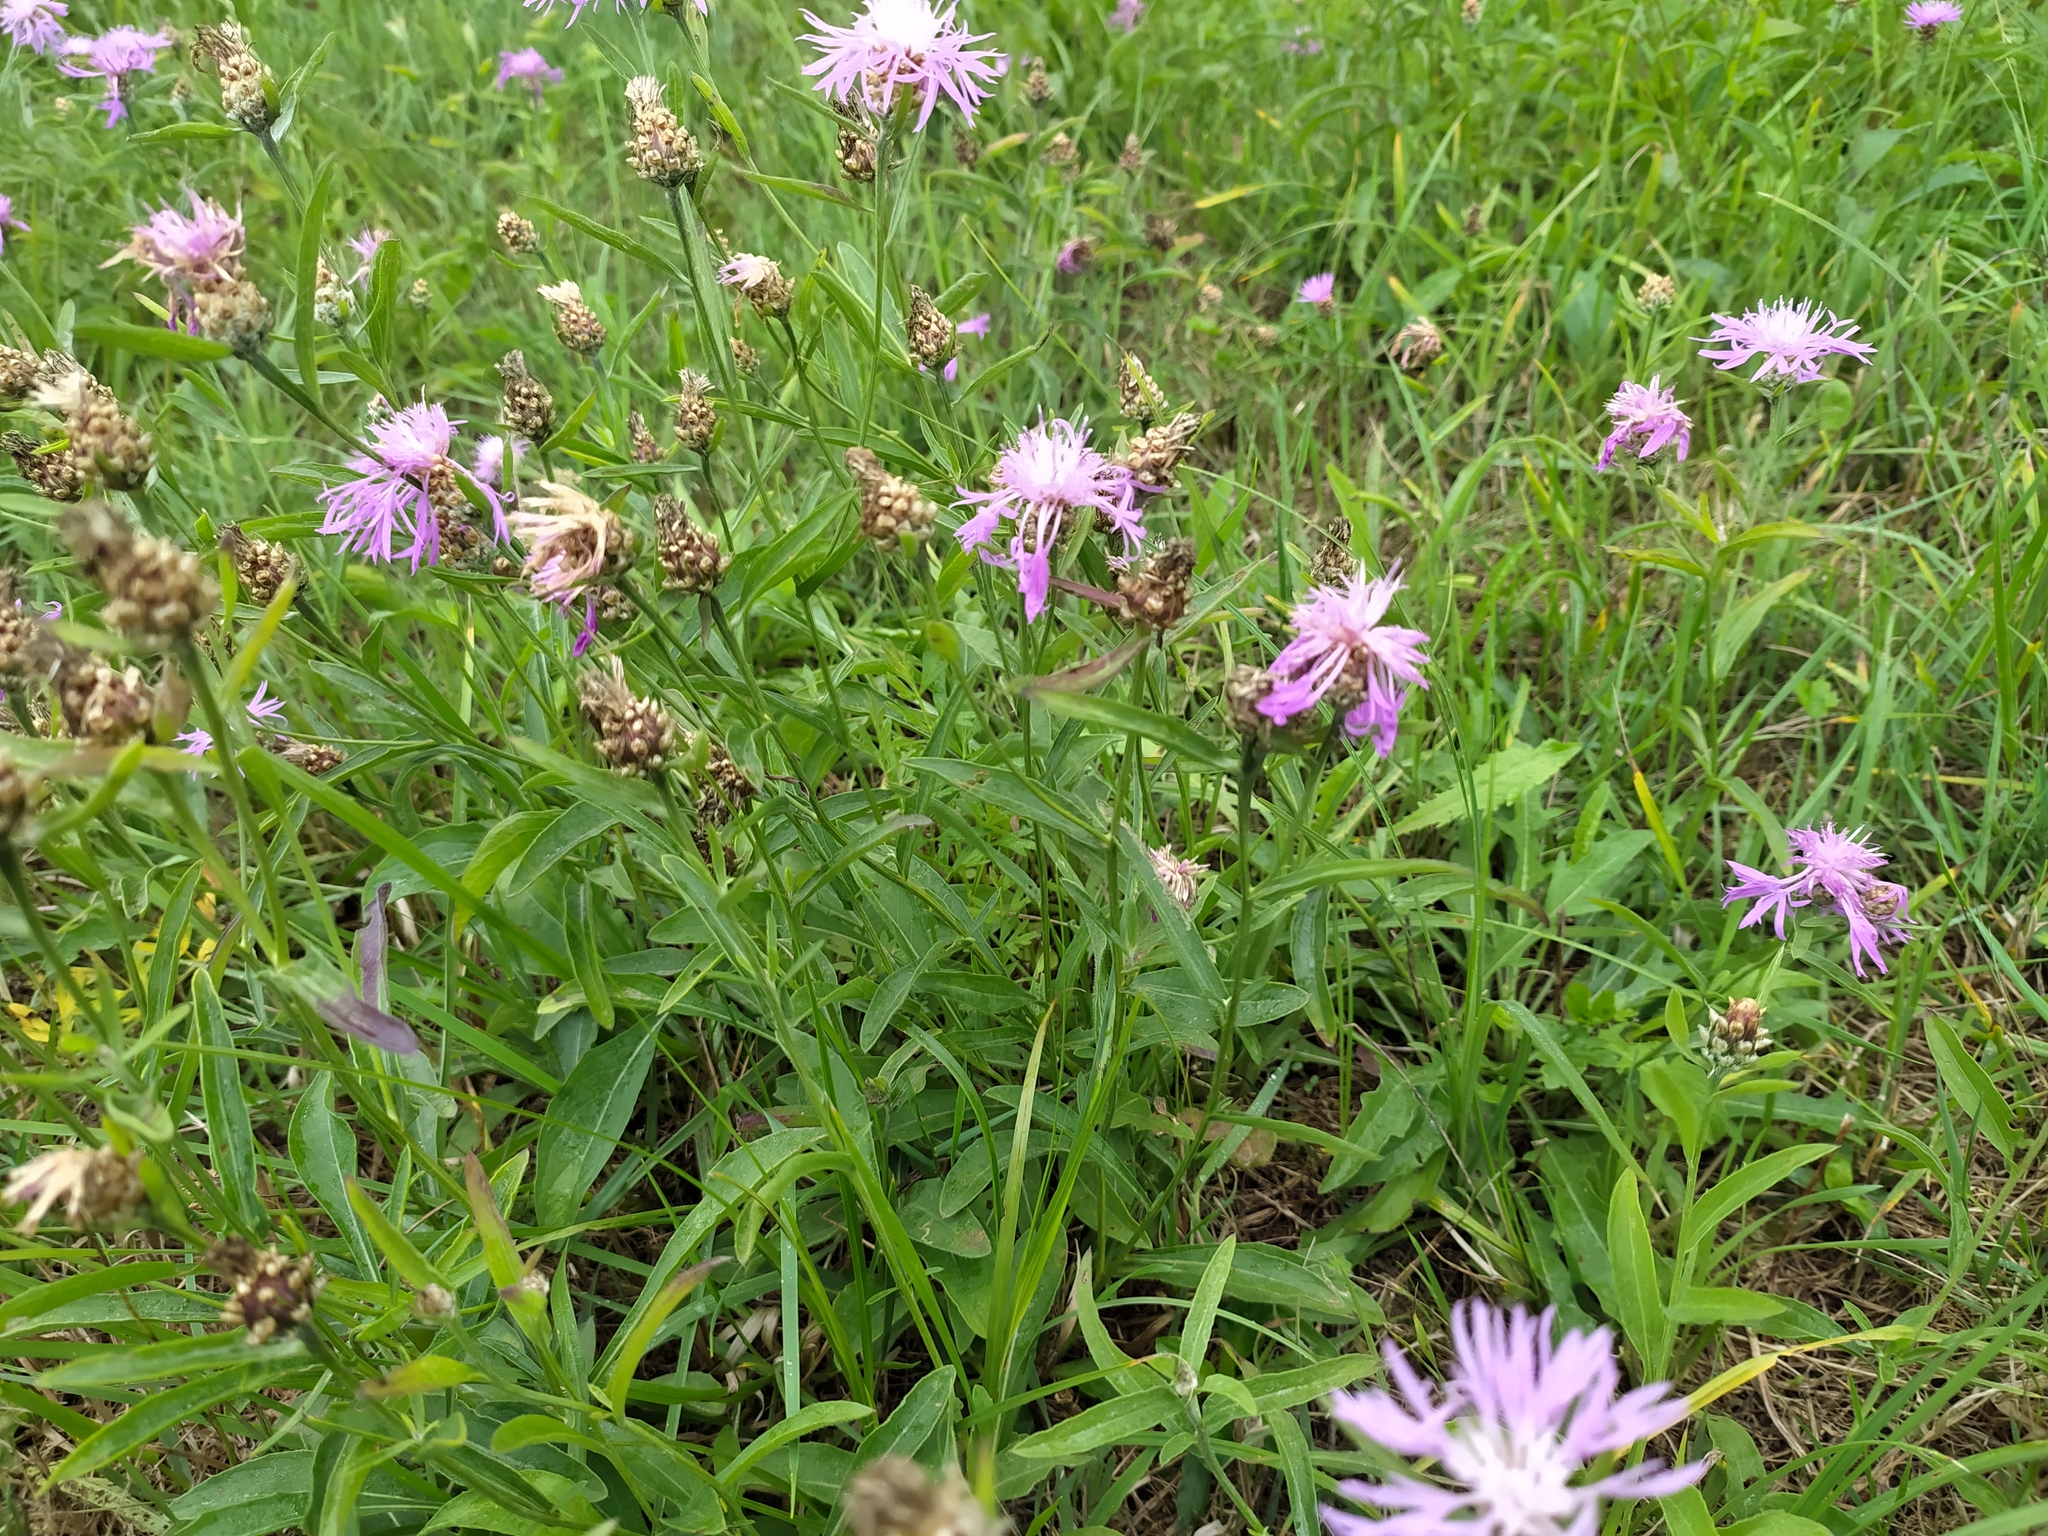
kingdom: Plantae
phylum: Tracheophyta
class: Magnoliopsida
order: Asterales
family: Asteraceae
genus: Centaurea
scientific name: Centaurea jacea
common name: Brown knapweed
